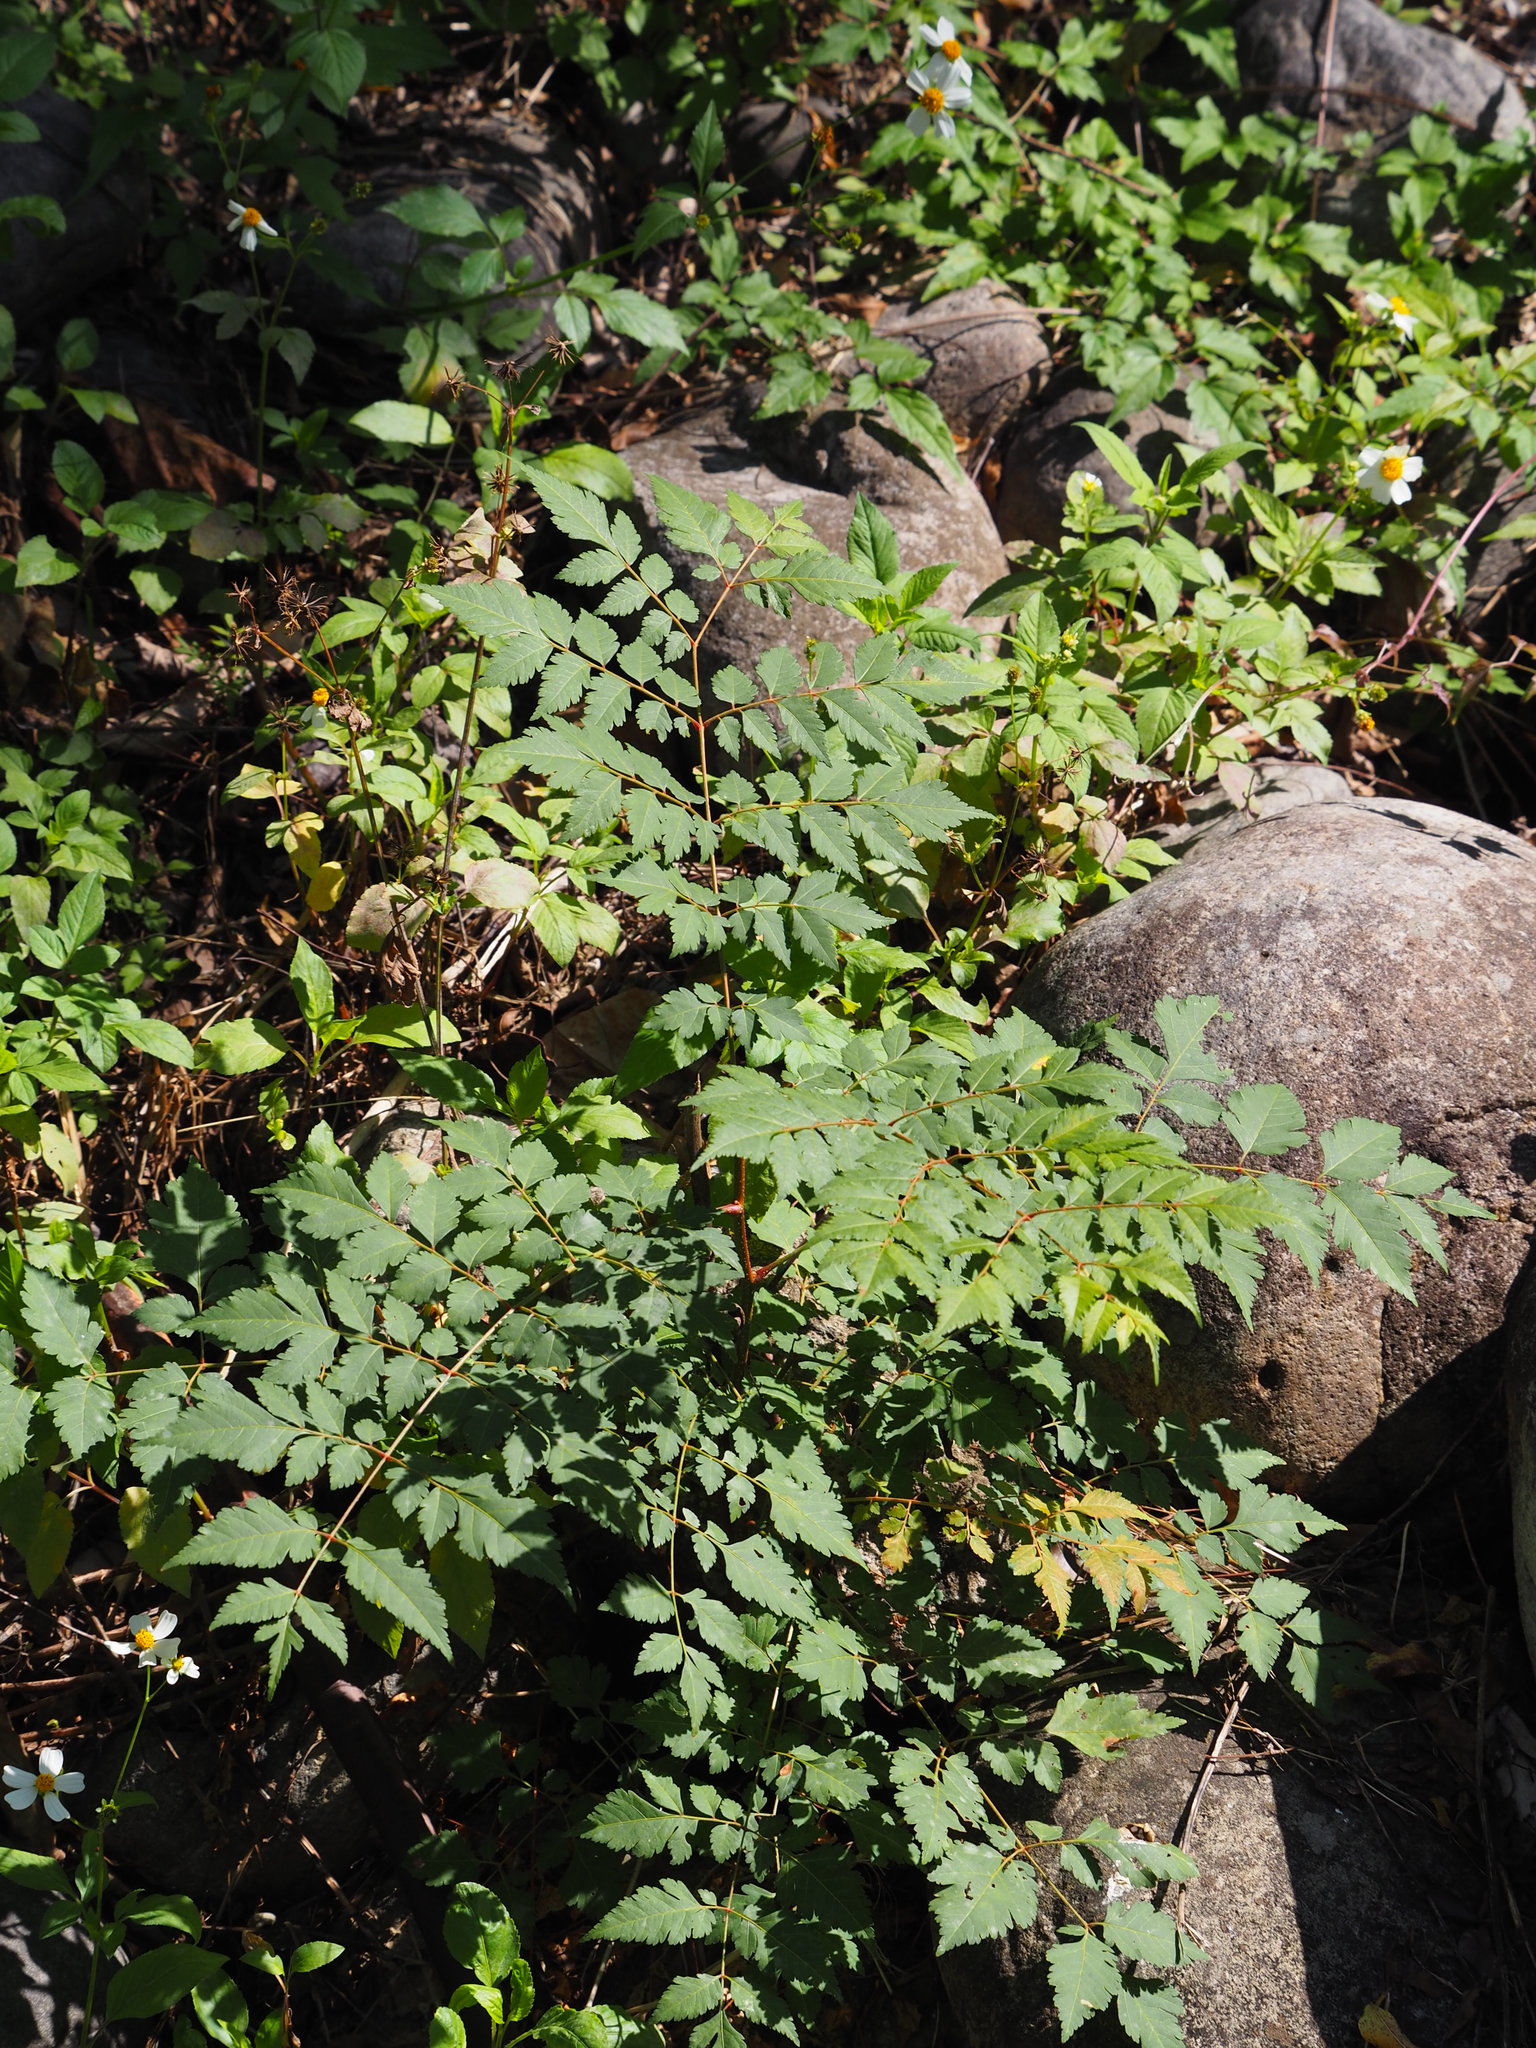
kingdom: Plantae
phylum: Tracheophyta
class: Magnoliopsida
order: Sapindales
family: Sapindaceae
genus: Koelreuteria
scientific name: Koelreuteria elegans
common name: Chinese flame tree
